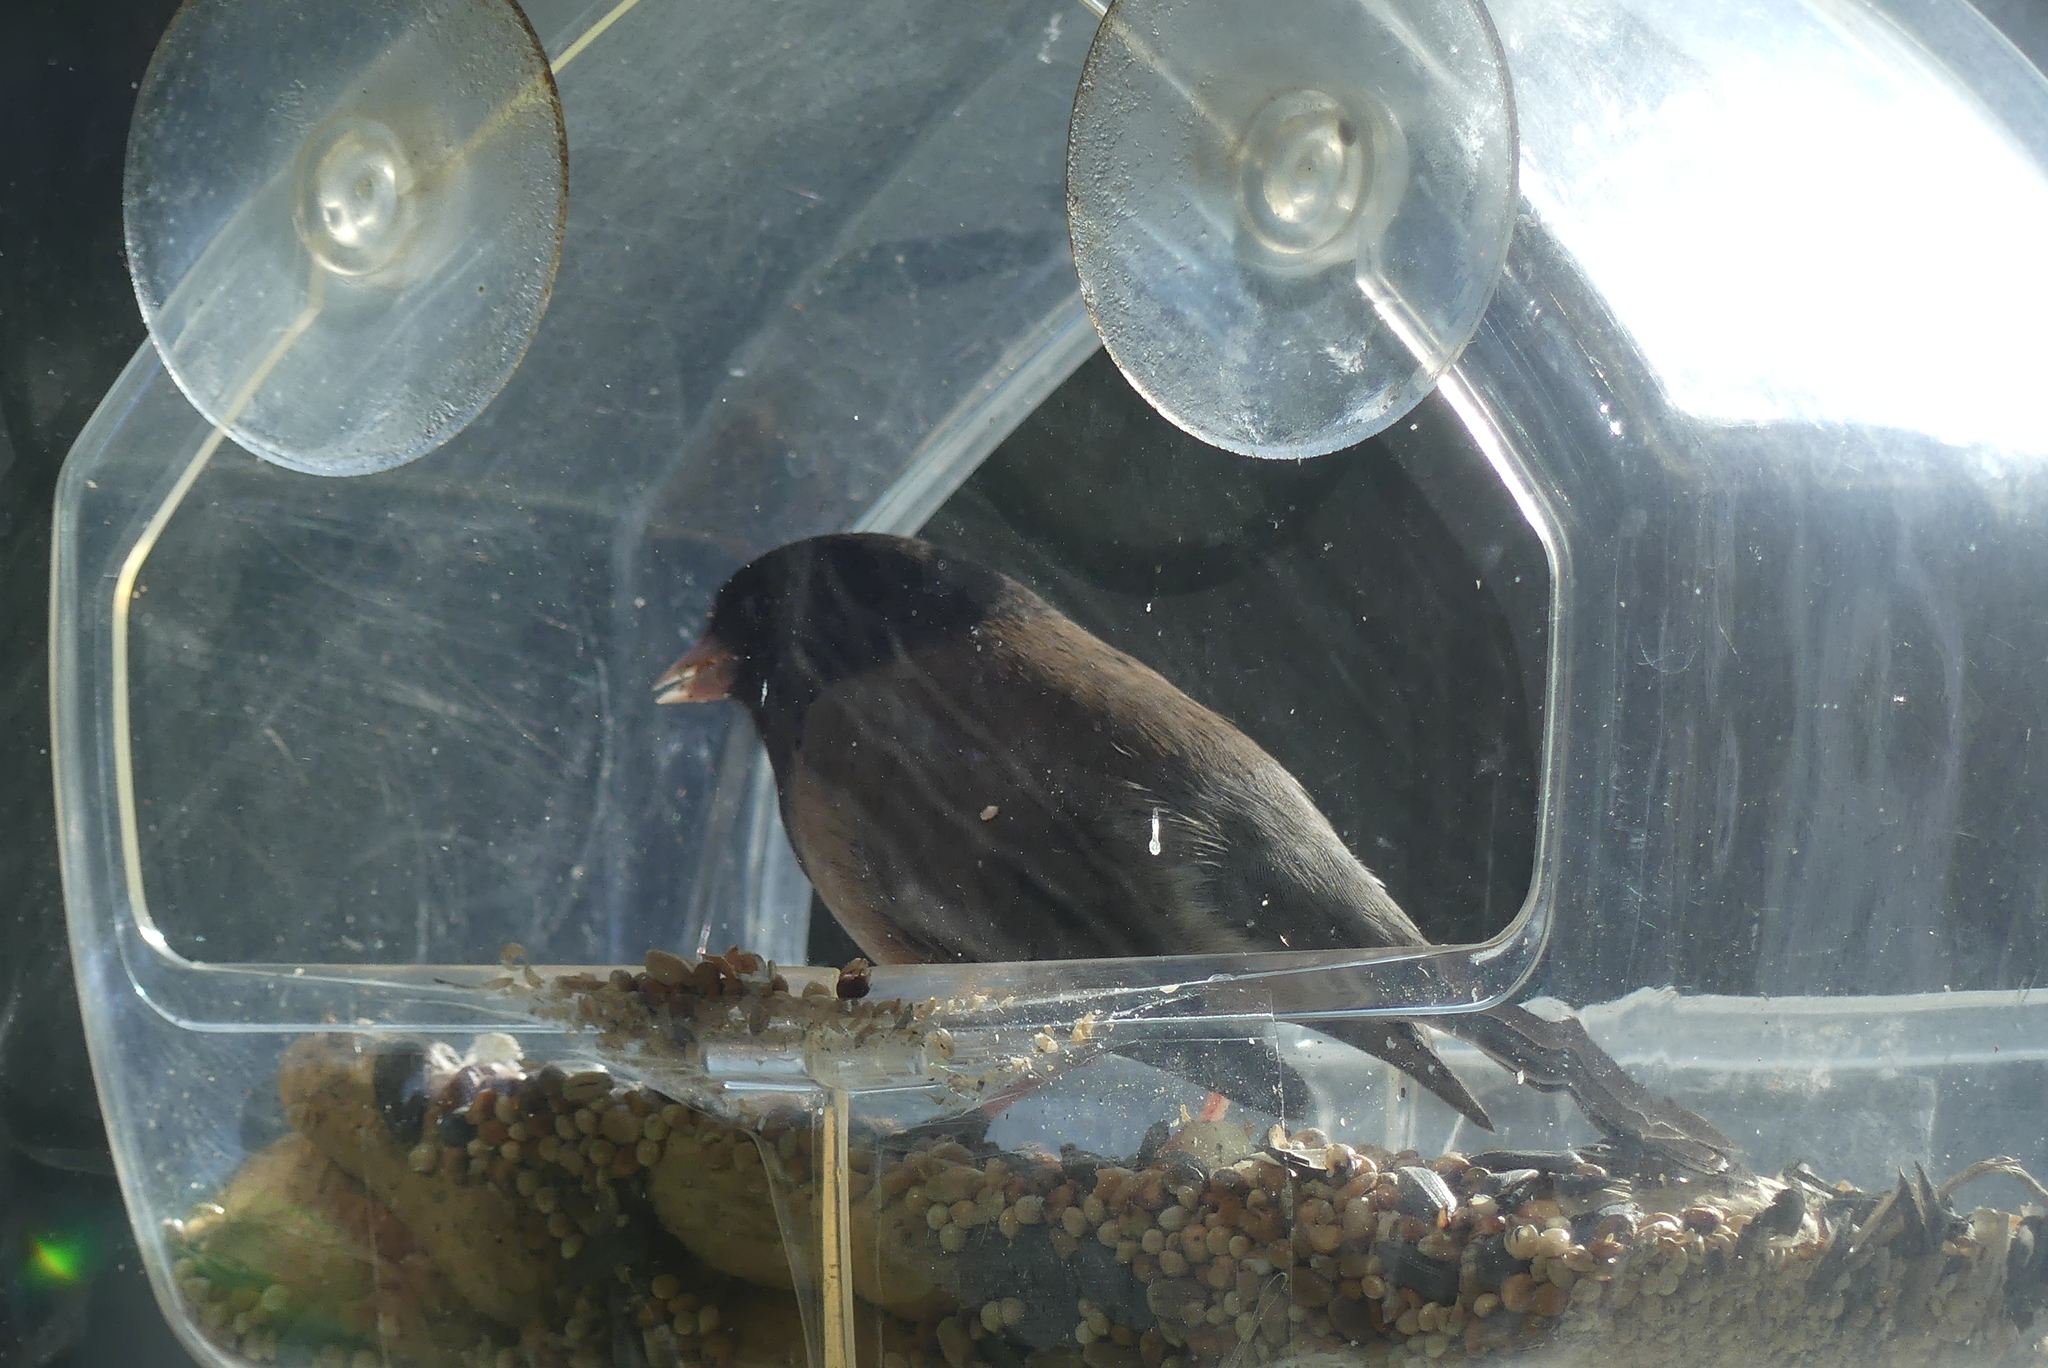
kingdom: Animalia
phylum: Chordata
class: Aves
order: Passeriformes
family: Passerellidae
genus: Junco
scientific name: Junco hyemalis
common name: Dark-eyed junco
